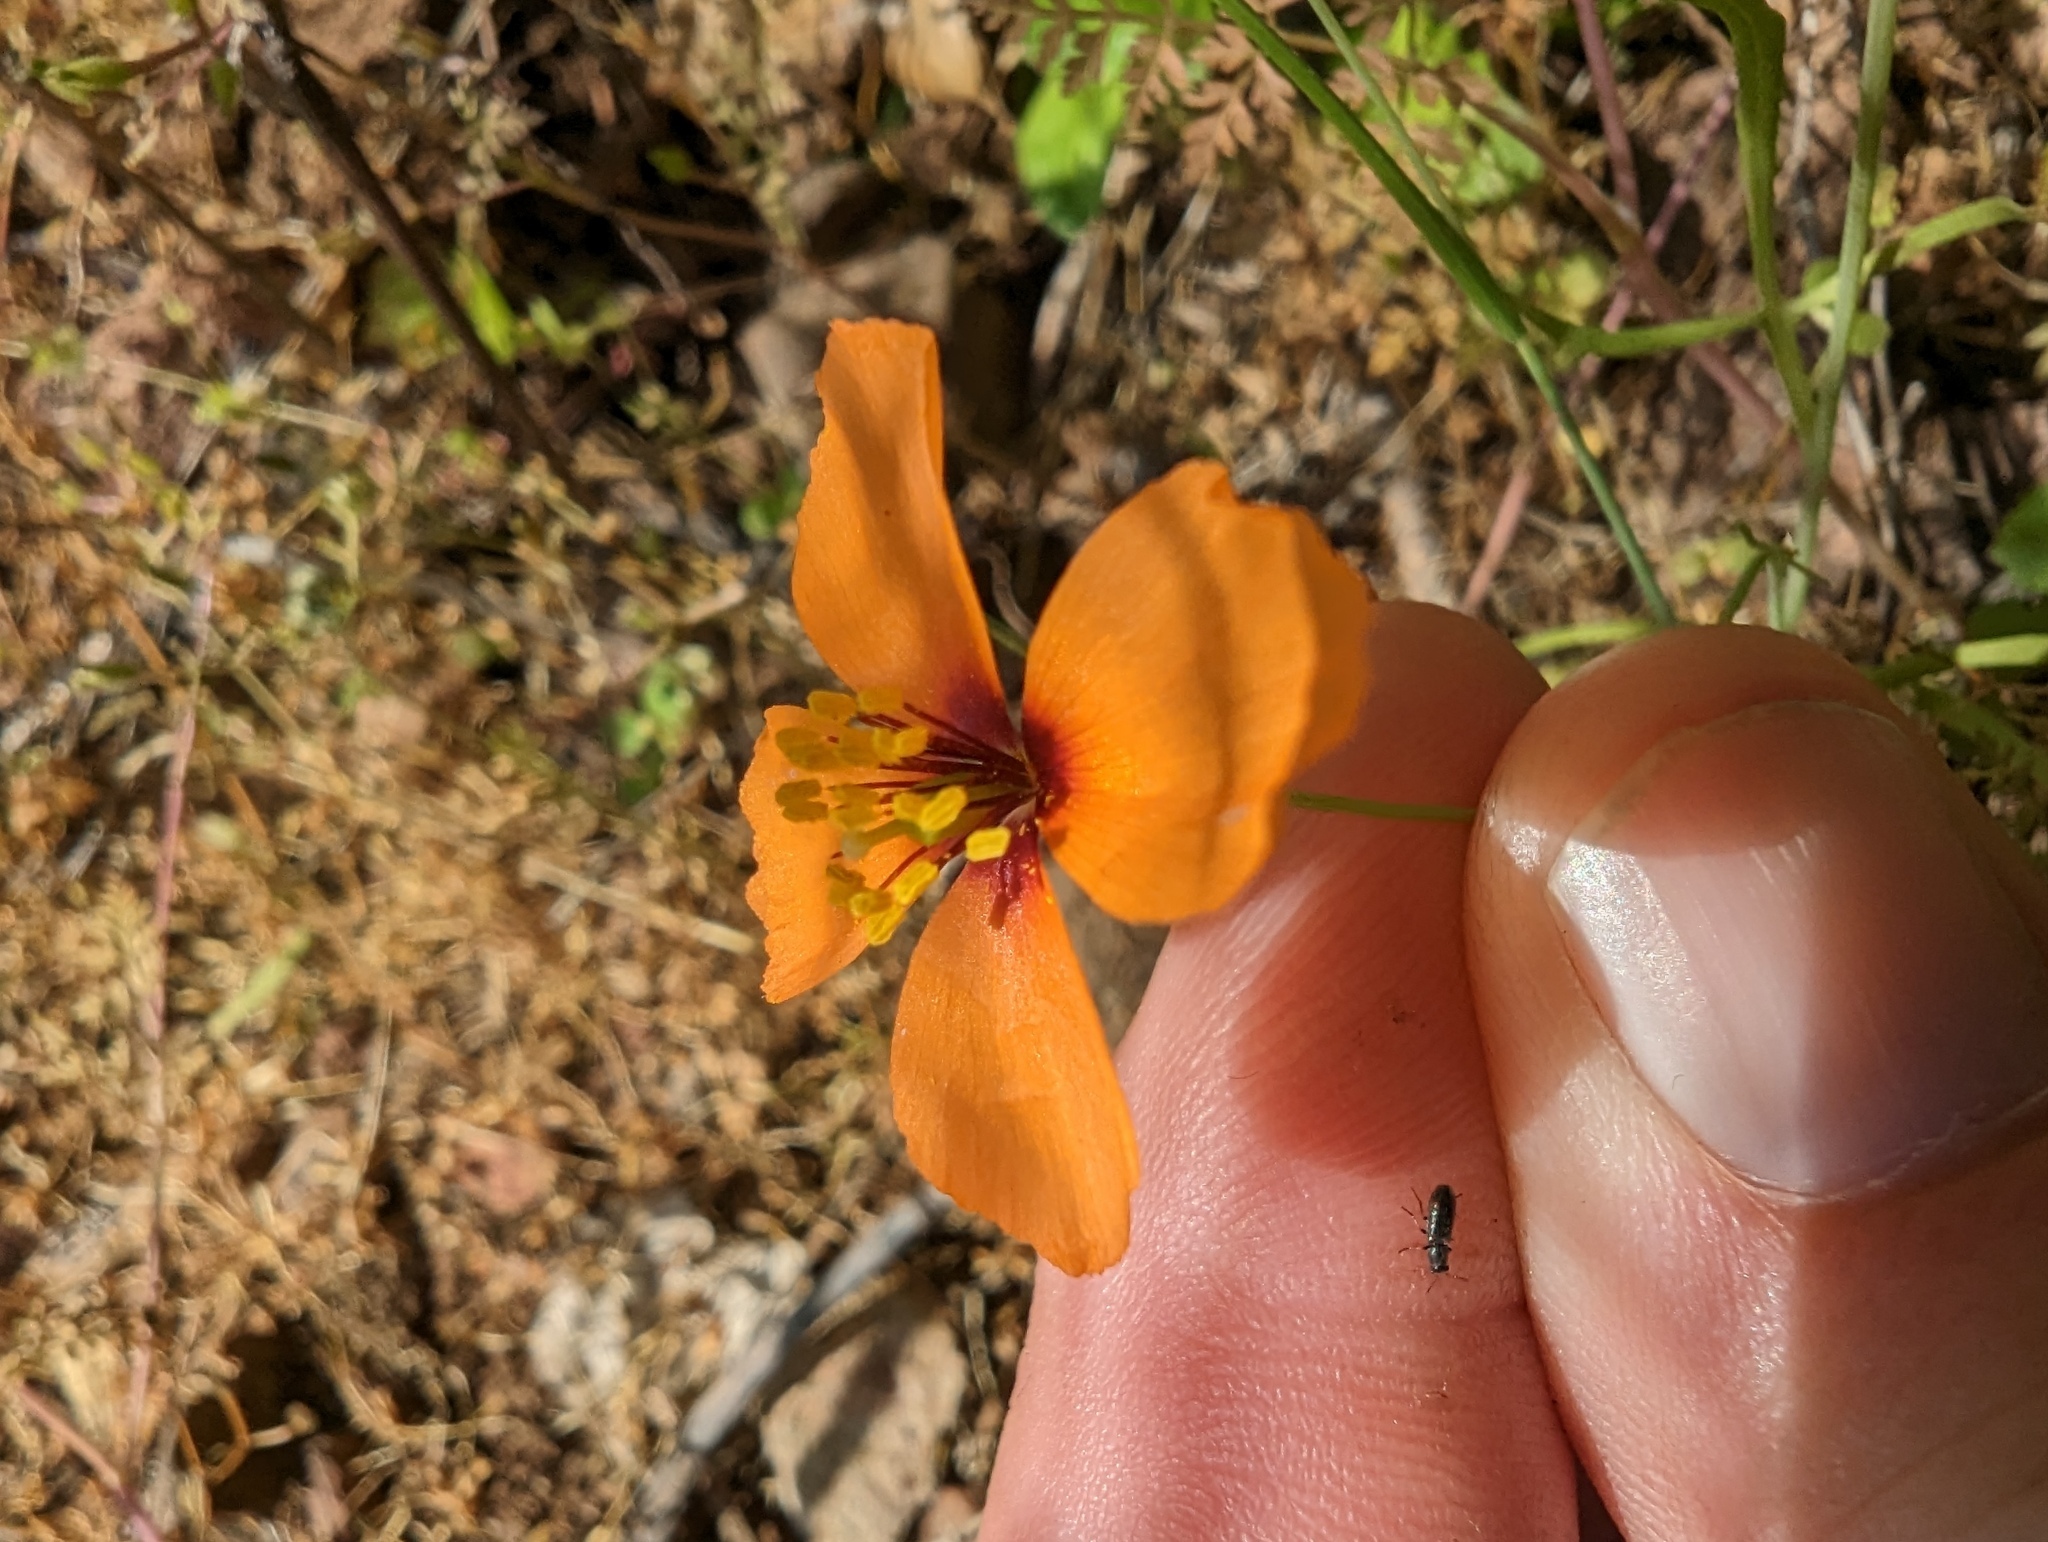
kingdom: Plantae
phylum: Tracheophyta
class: Magnoliopsida
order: Ranunculales
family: Papaveraceae
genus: Stylomecon
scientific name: Stylomecon heterophylla
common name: Flaming-poppy
